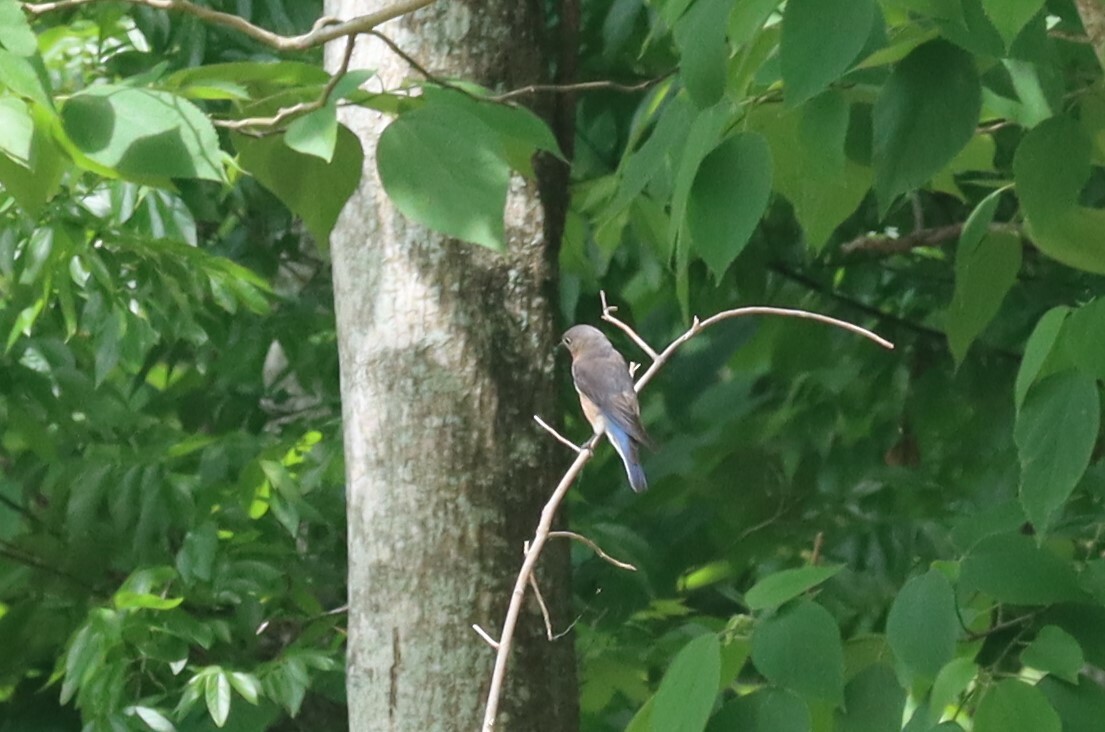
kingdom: Animalia
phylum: Chordata
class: Aves
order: Passeriformes
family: Turdidae
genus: Sialia
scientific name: Sialia sialis
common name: Eastern bluebird
